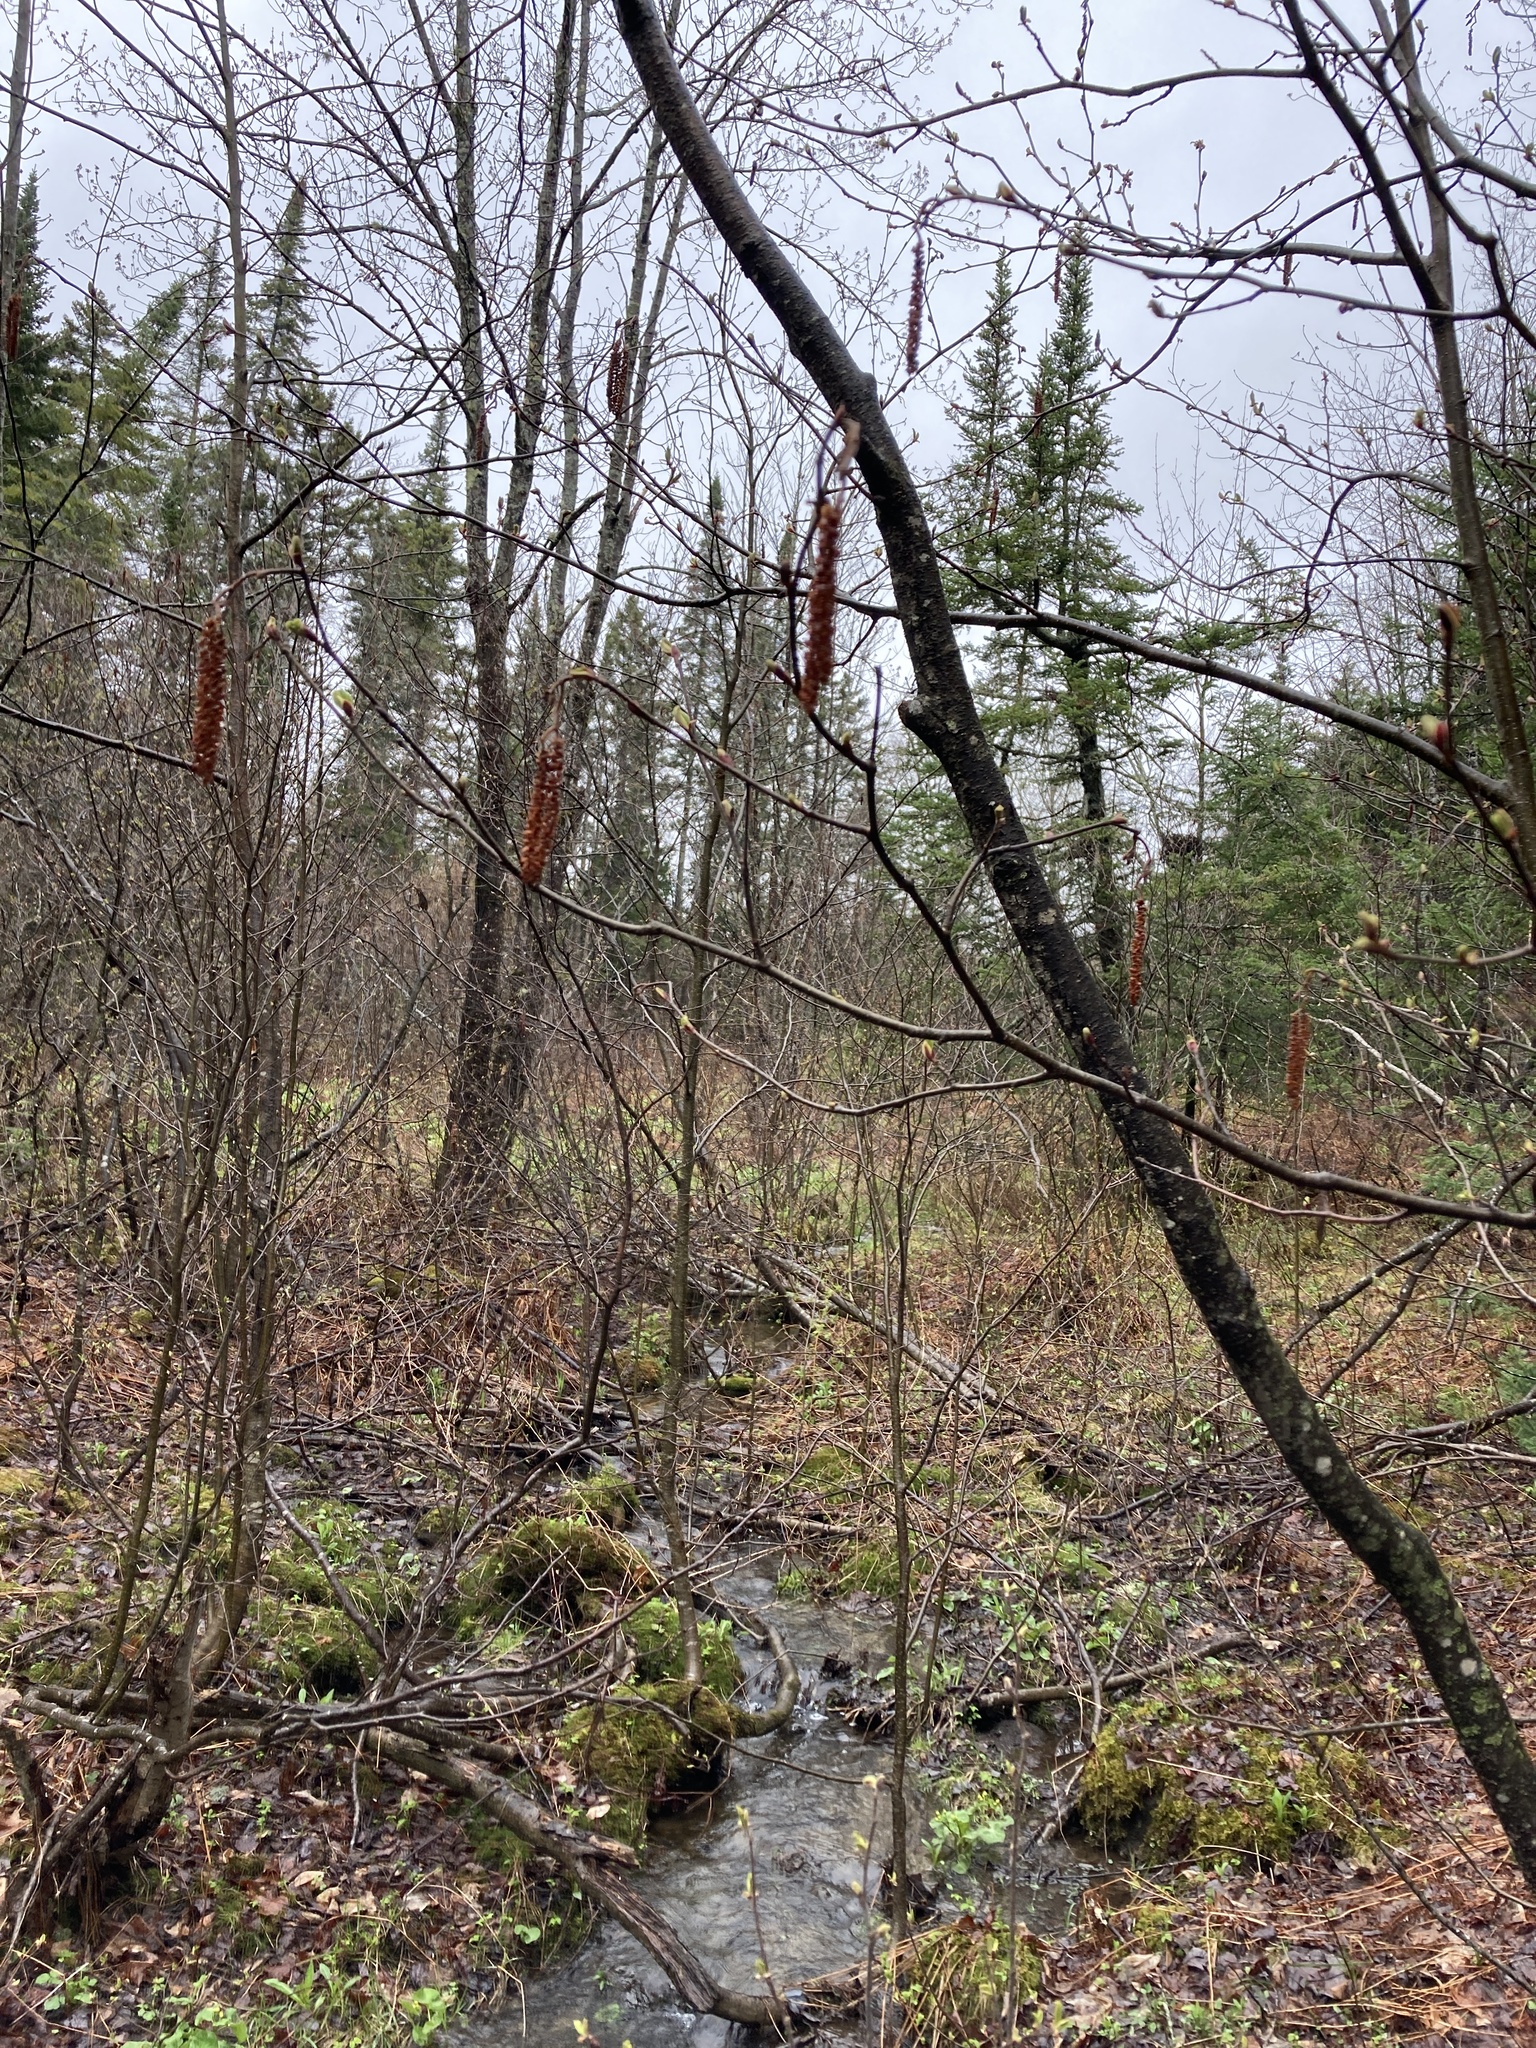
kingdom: Plantae
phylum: Tracheophyta
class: Magnoliopsida
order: Fagales
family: Betulaceae
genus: Alnus
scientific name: Alnus incana
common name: Grey alder
